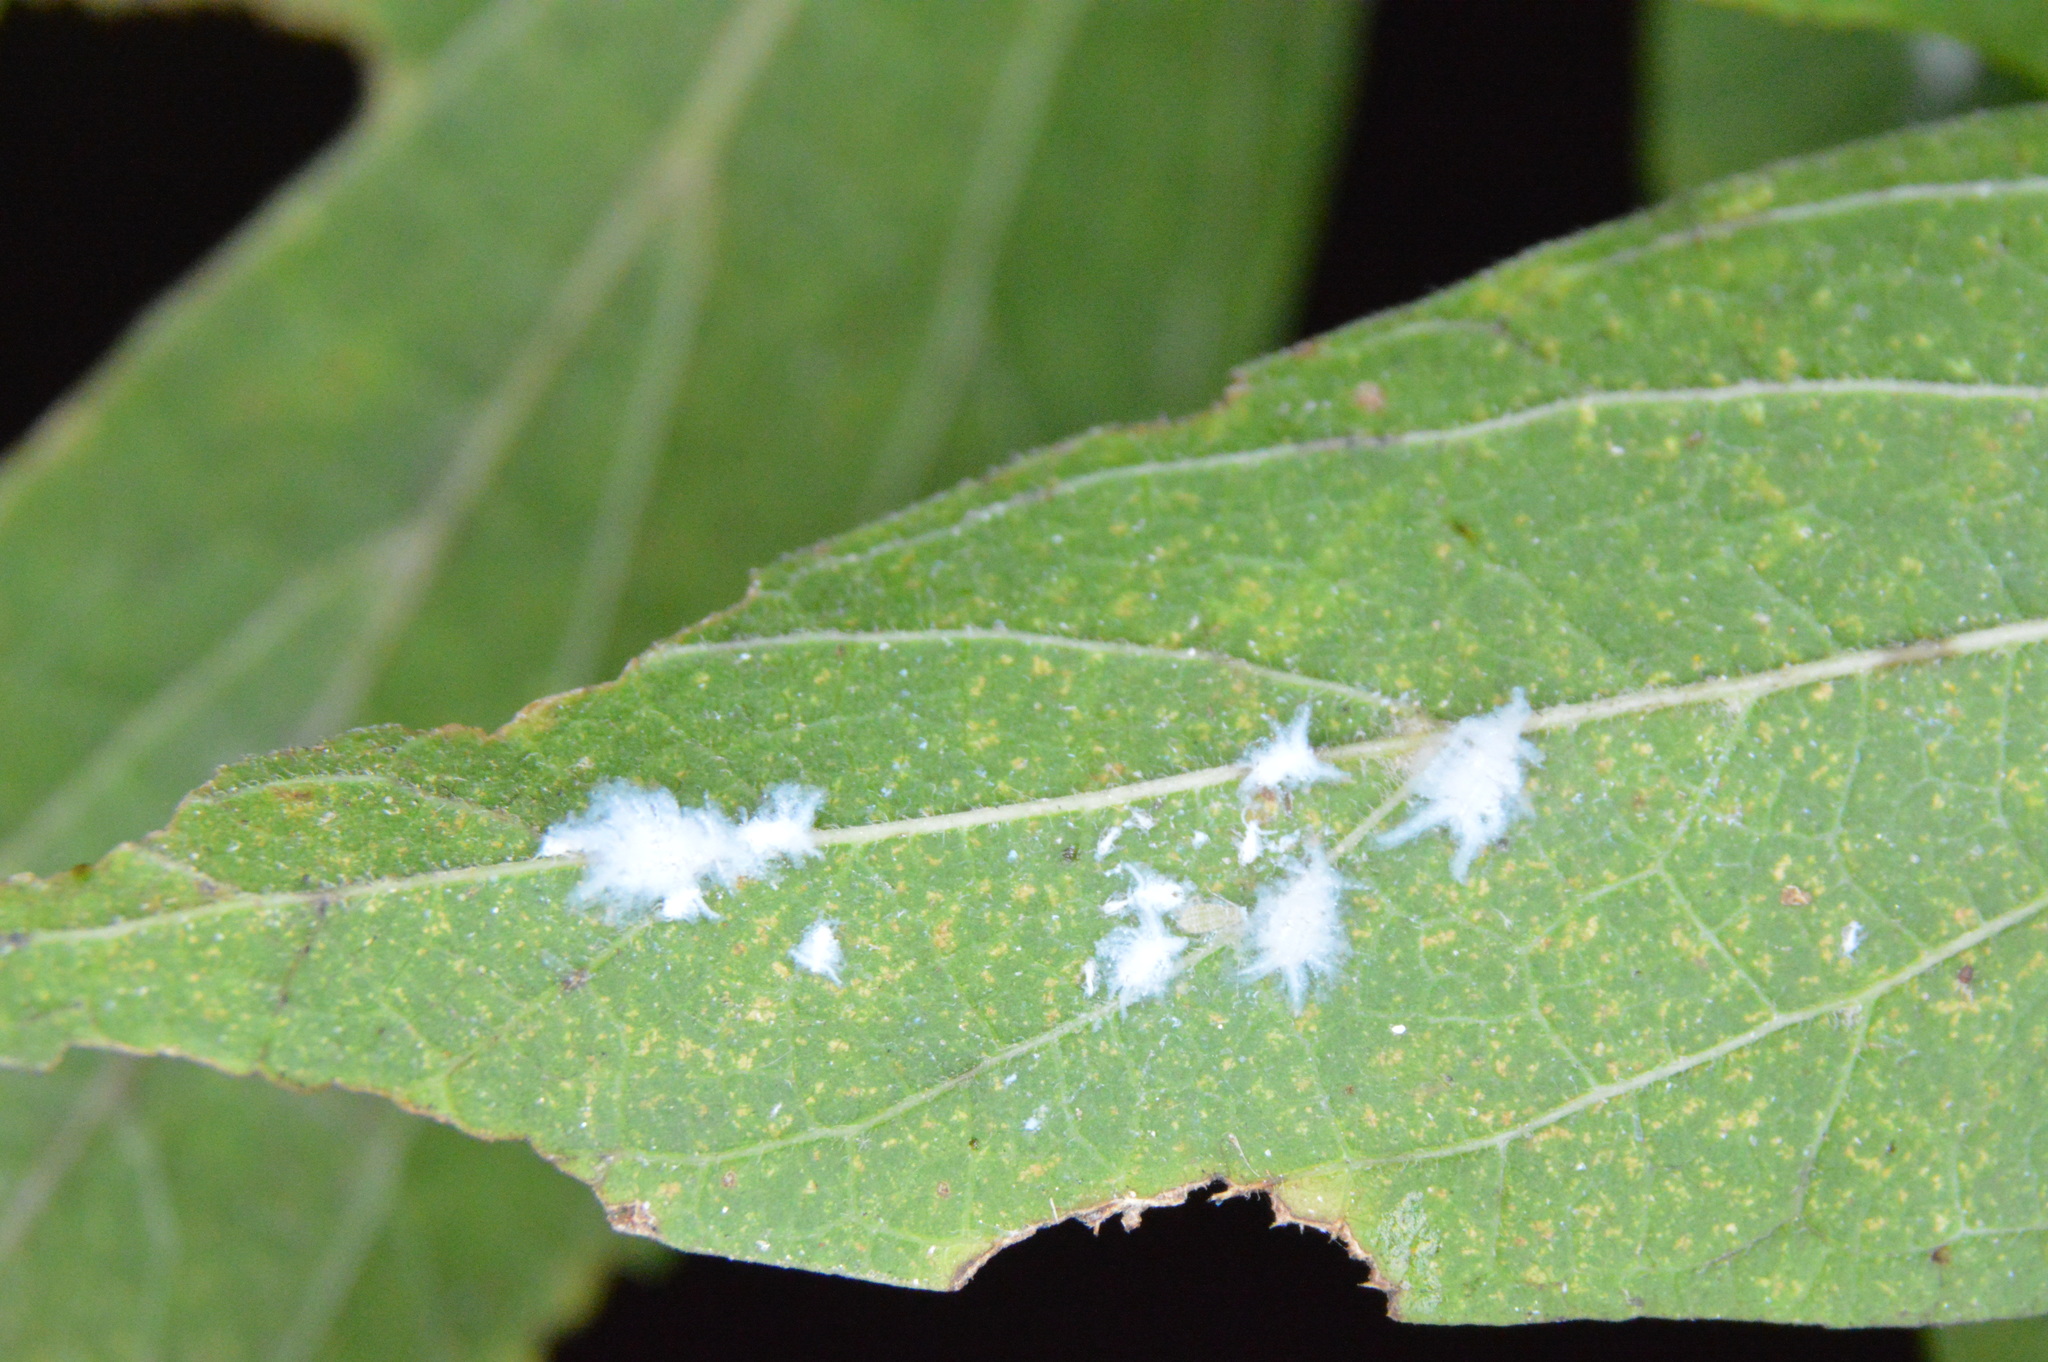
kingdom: Animalia
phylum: Arthropoda
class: Insecta
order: Hemiptera
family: Aphididae
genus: Shivaphis
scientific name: Shivaphis celti
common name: Asian wooly hackberry aphid
